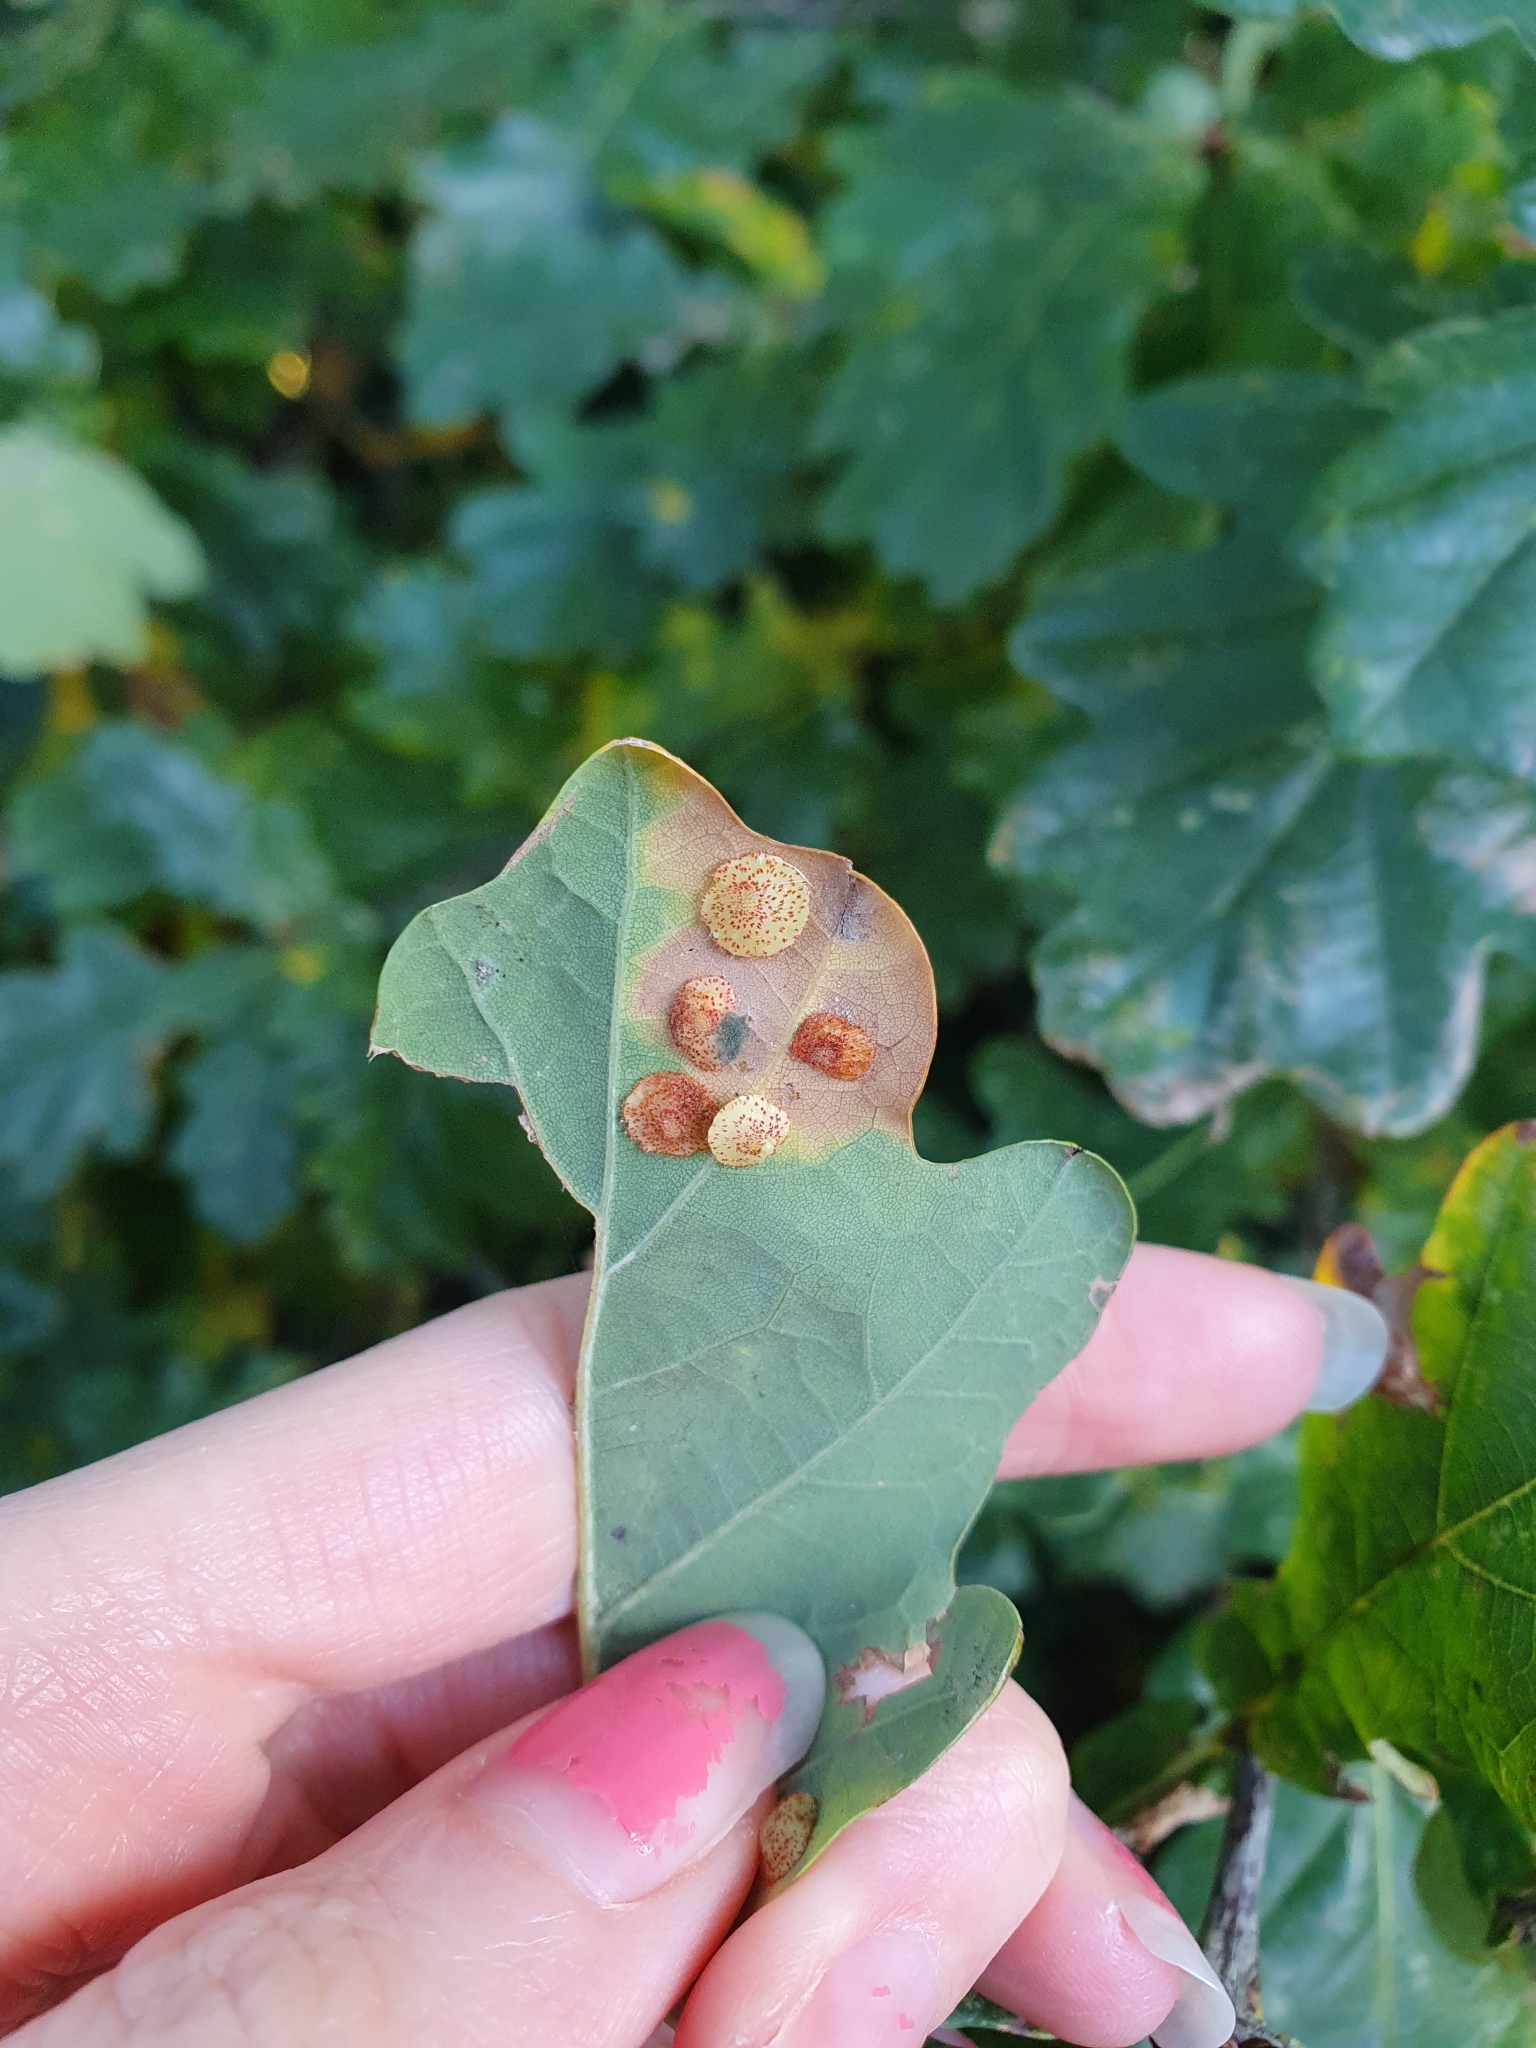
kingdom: Animalia
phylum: Arthropoda
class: Insecta
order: Hymenoptera
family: Cynipidae
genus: Neuroterus
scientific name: Neuroterus quercusbaccarum
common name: Common spangle gall
